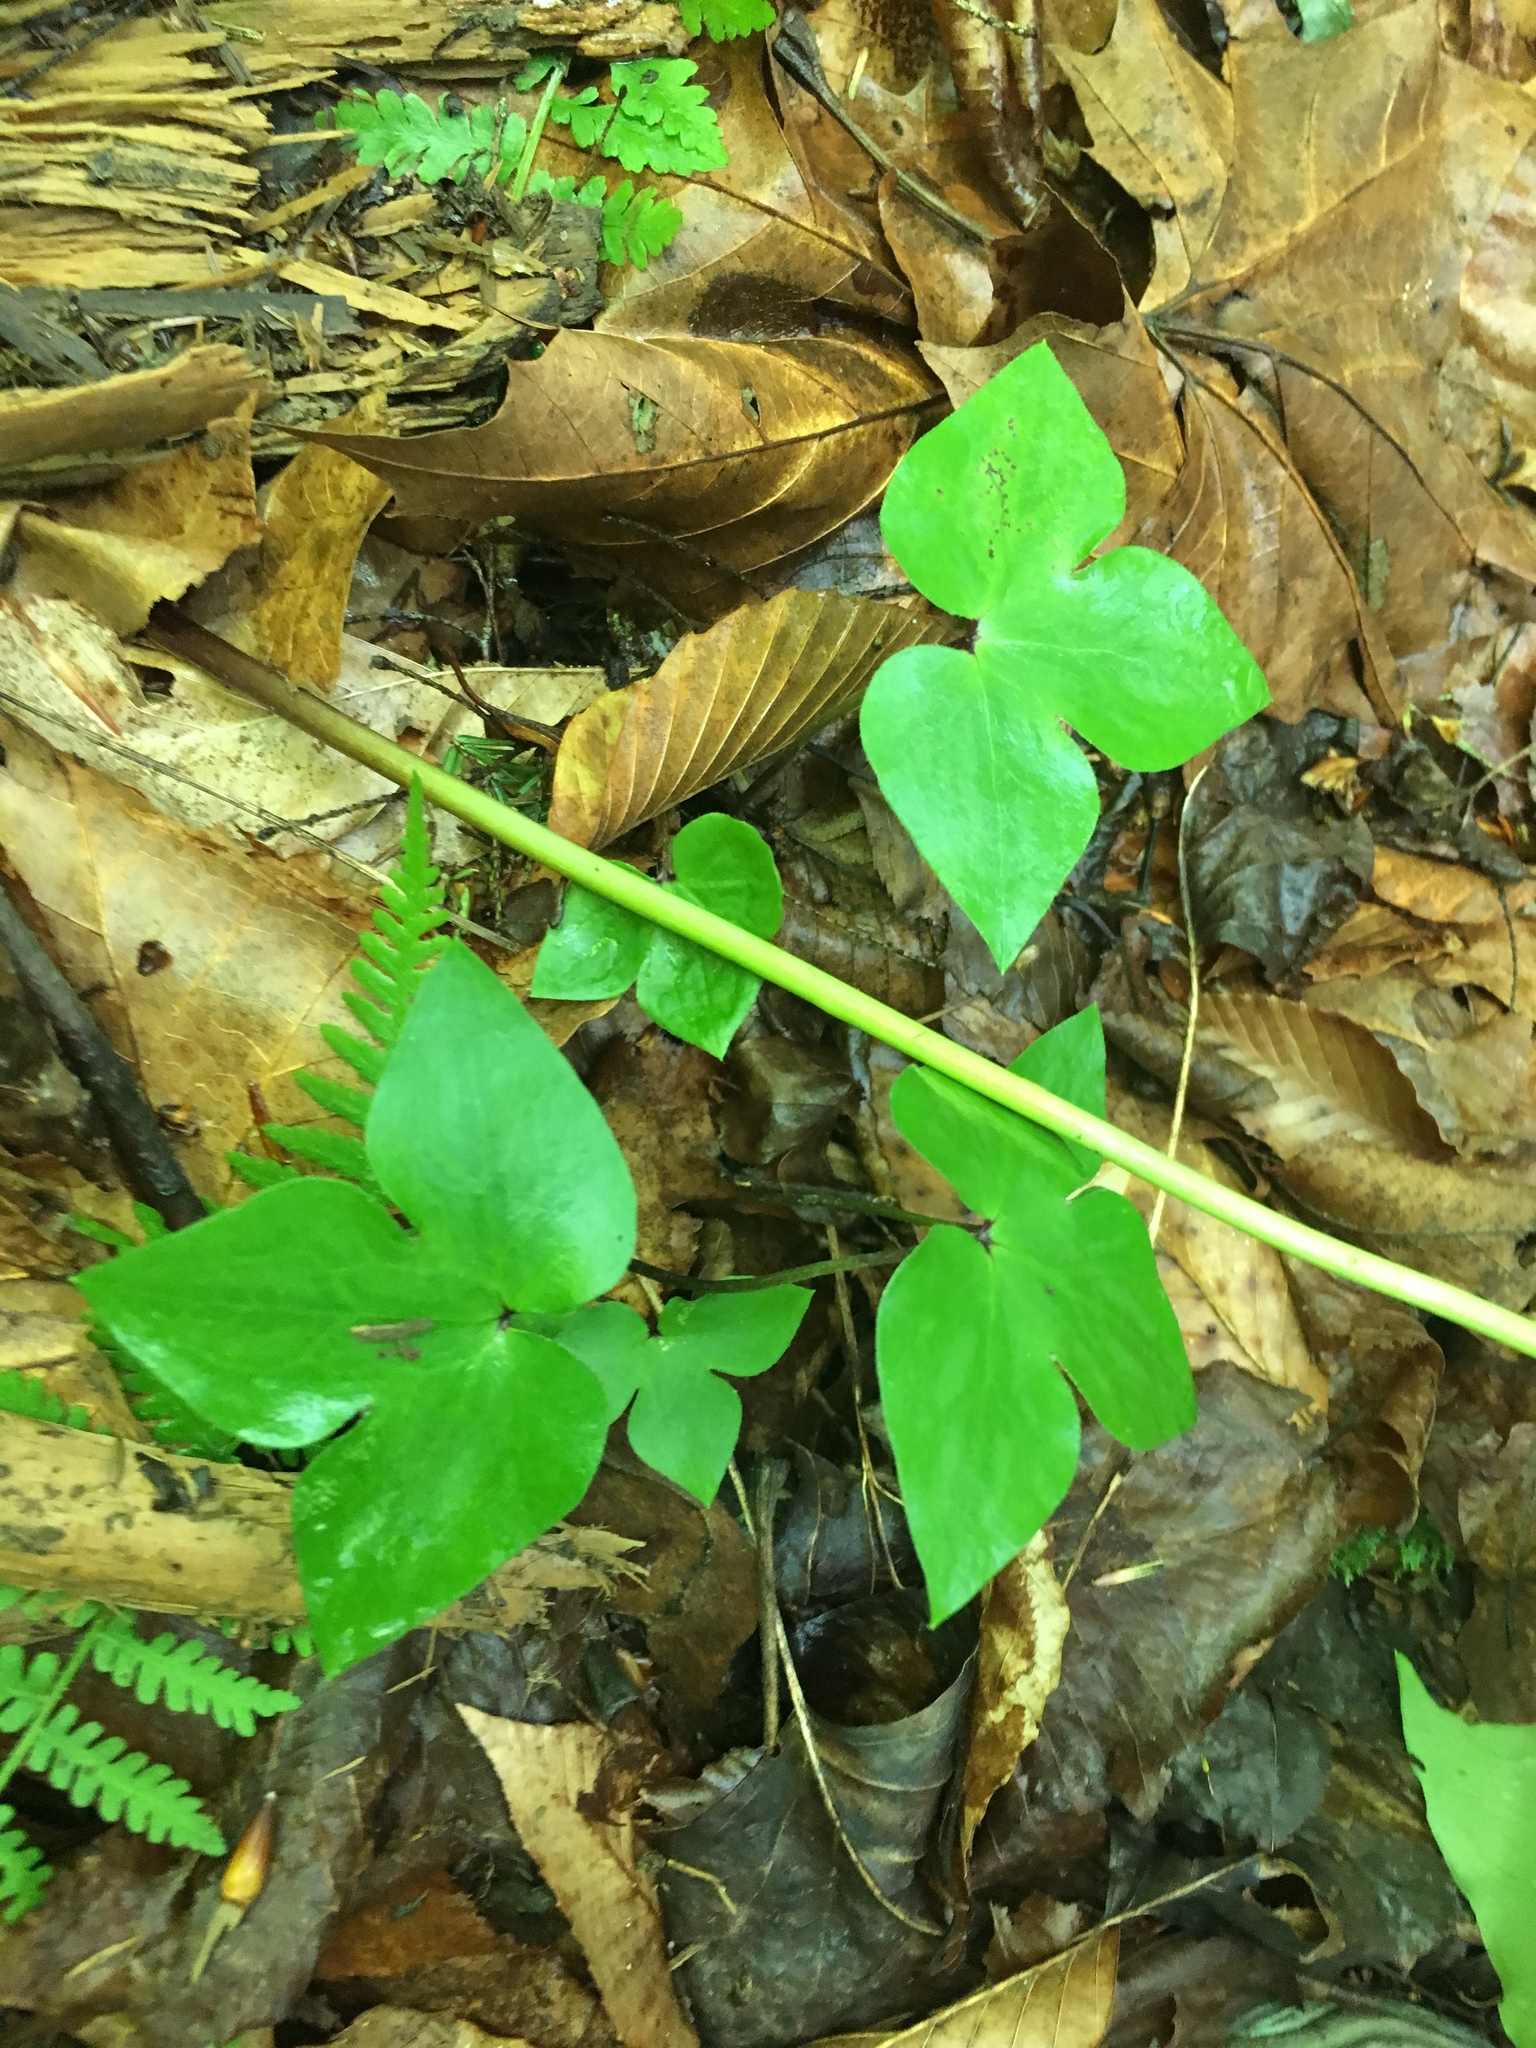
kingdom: Plantae
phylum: Tracheophyta
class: Magnoliopsida
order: Ranunculales
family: Ranunculaceae
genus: Hepatica
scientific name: Hepatica acutiloba
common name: Sharp-lobed hepatica
